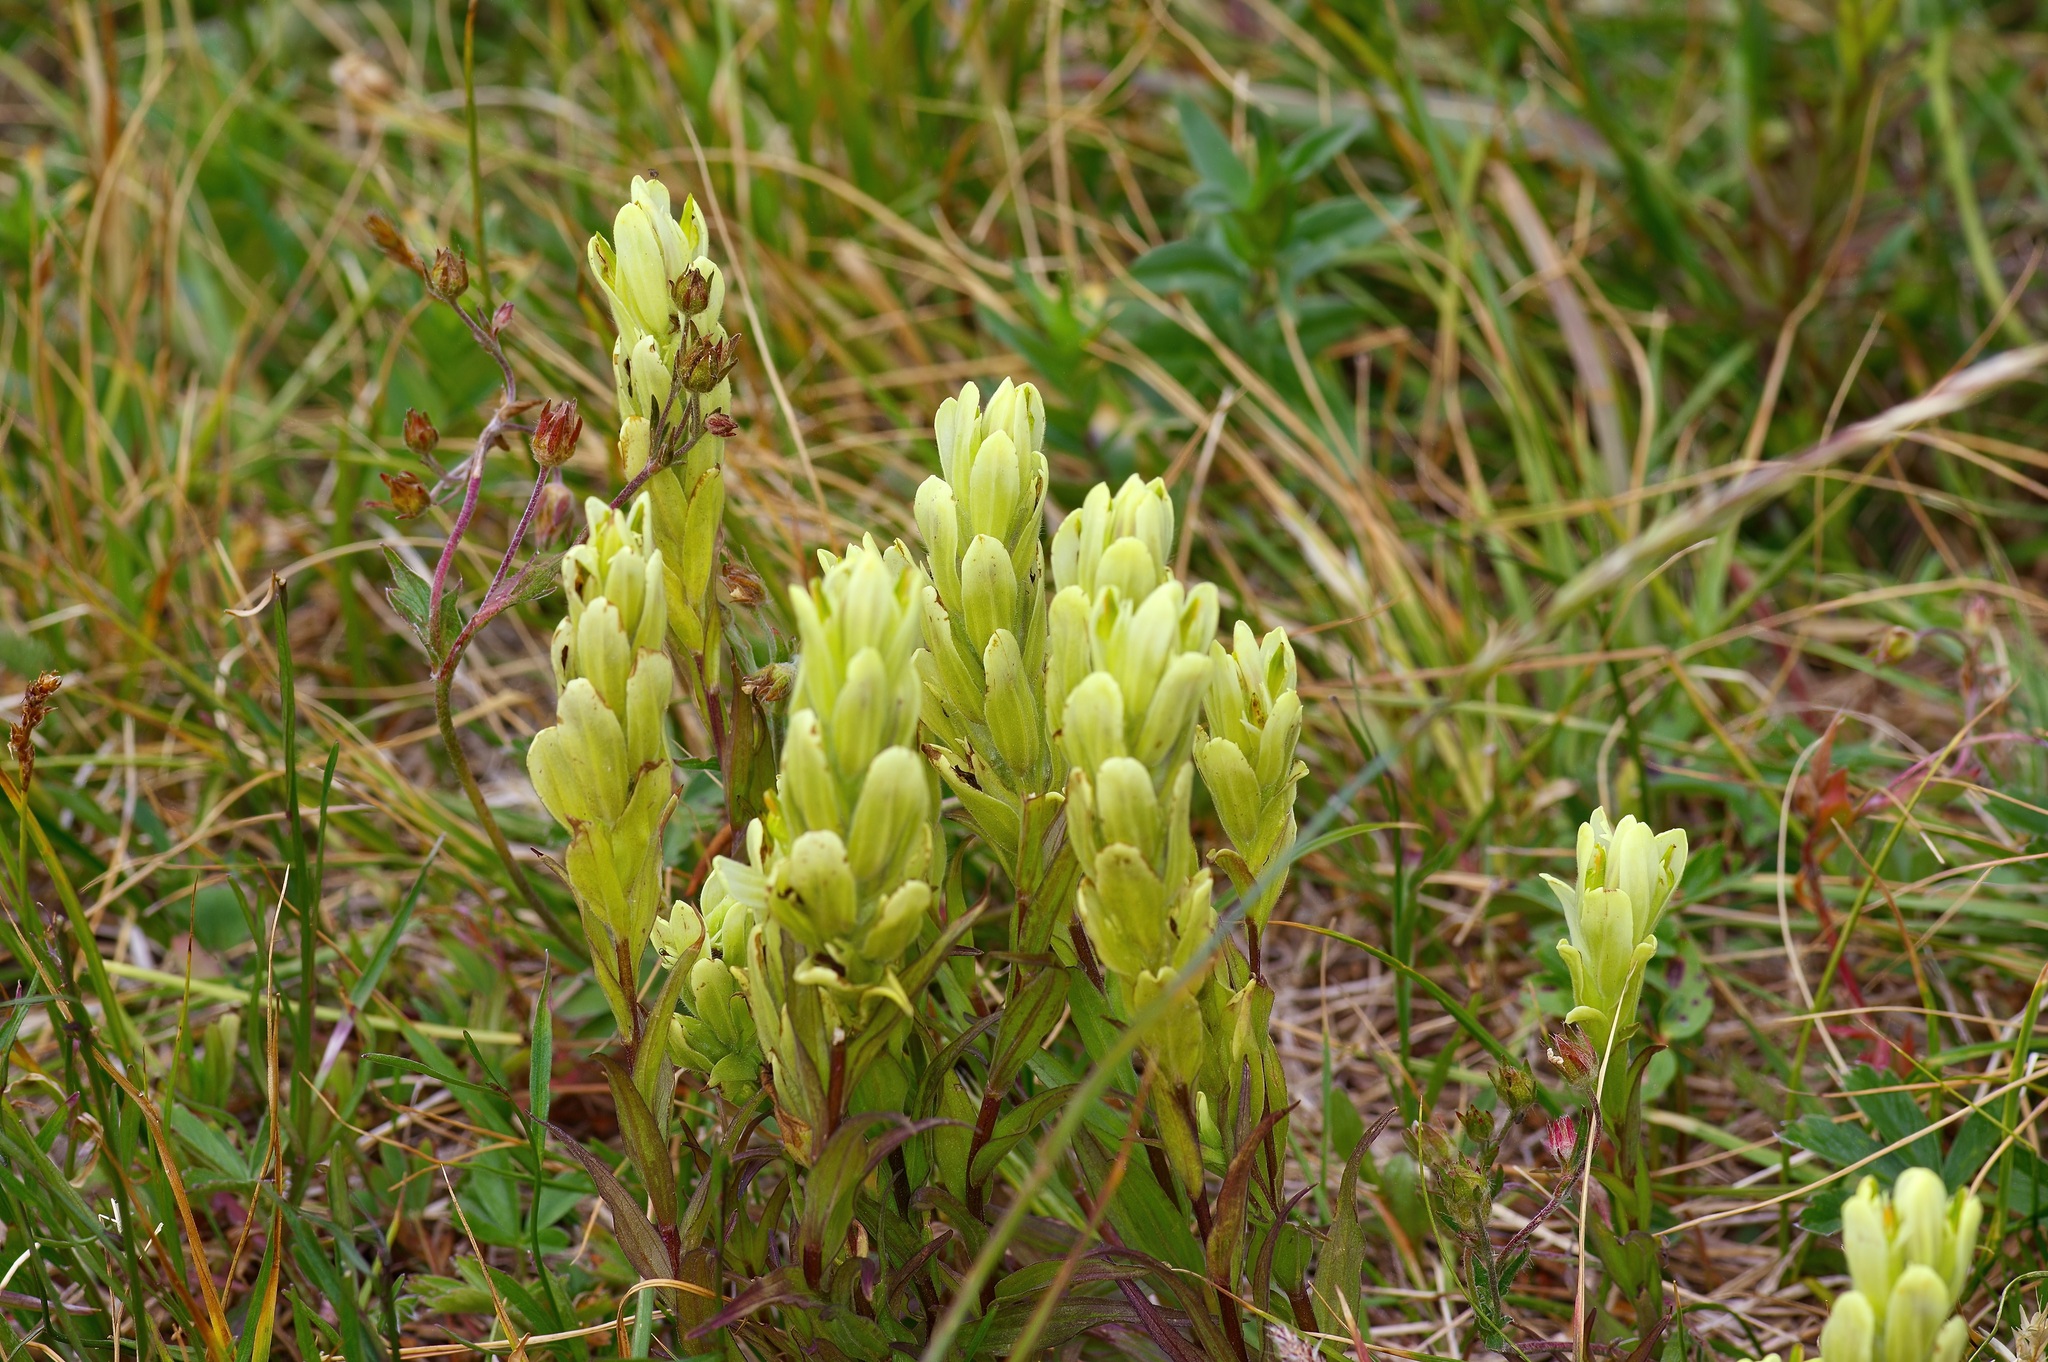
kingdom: Plantae
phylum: Tracheophyta
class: Magnoliopsida
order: Lamiales
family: Orobanchaceae
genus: Castilleja
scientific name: Castilleja septentrionalis
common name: Northeastern paintbrush
